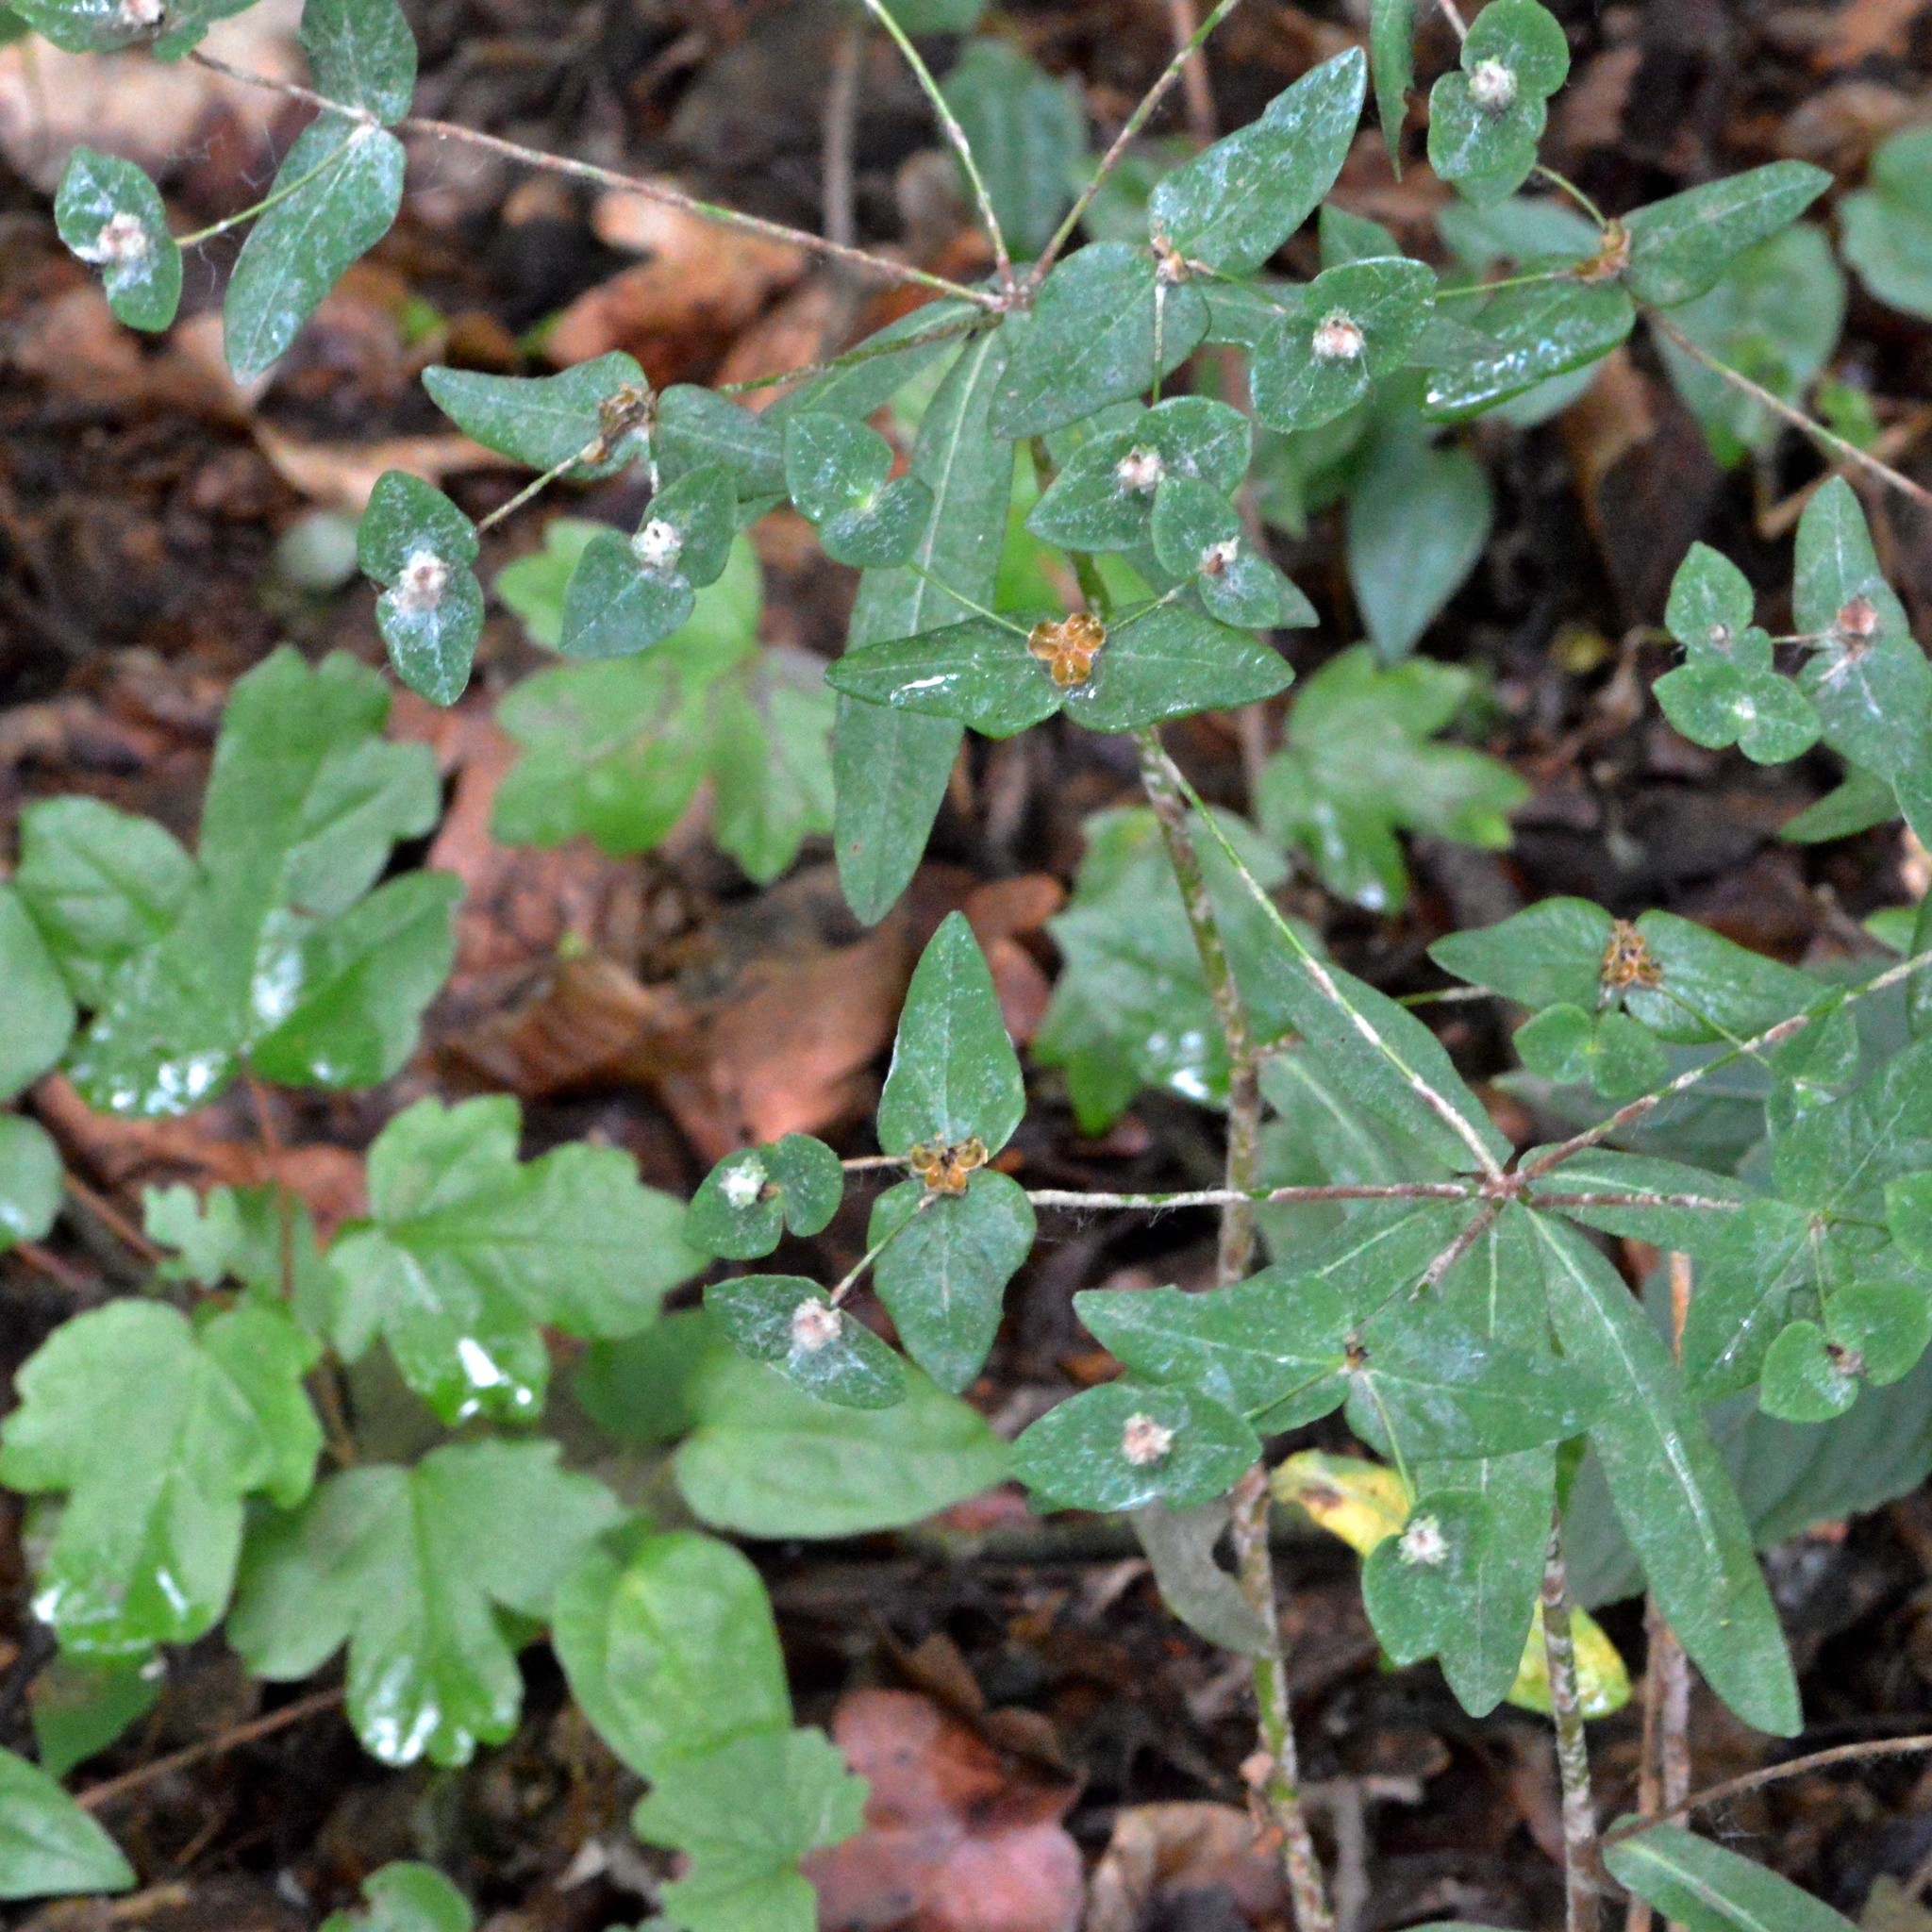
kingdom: Plantae
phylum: Tracheophyta
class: Magnoliopsida
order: Malpighiales
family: Euphorbiaceae
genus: Euphorbia
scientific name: Euphorbia dulcis
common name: Sweet spurge
